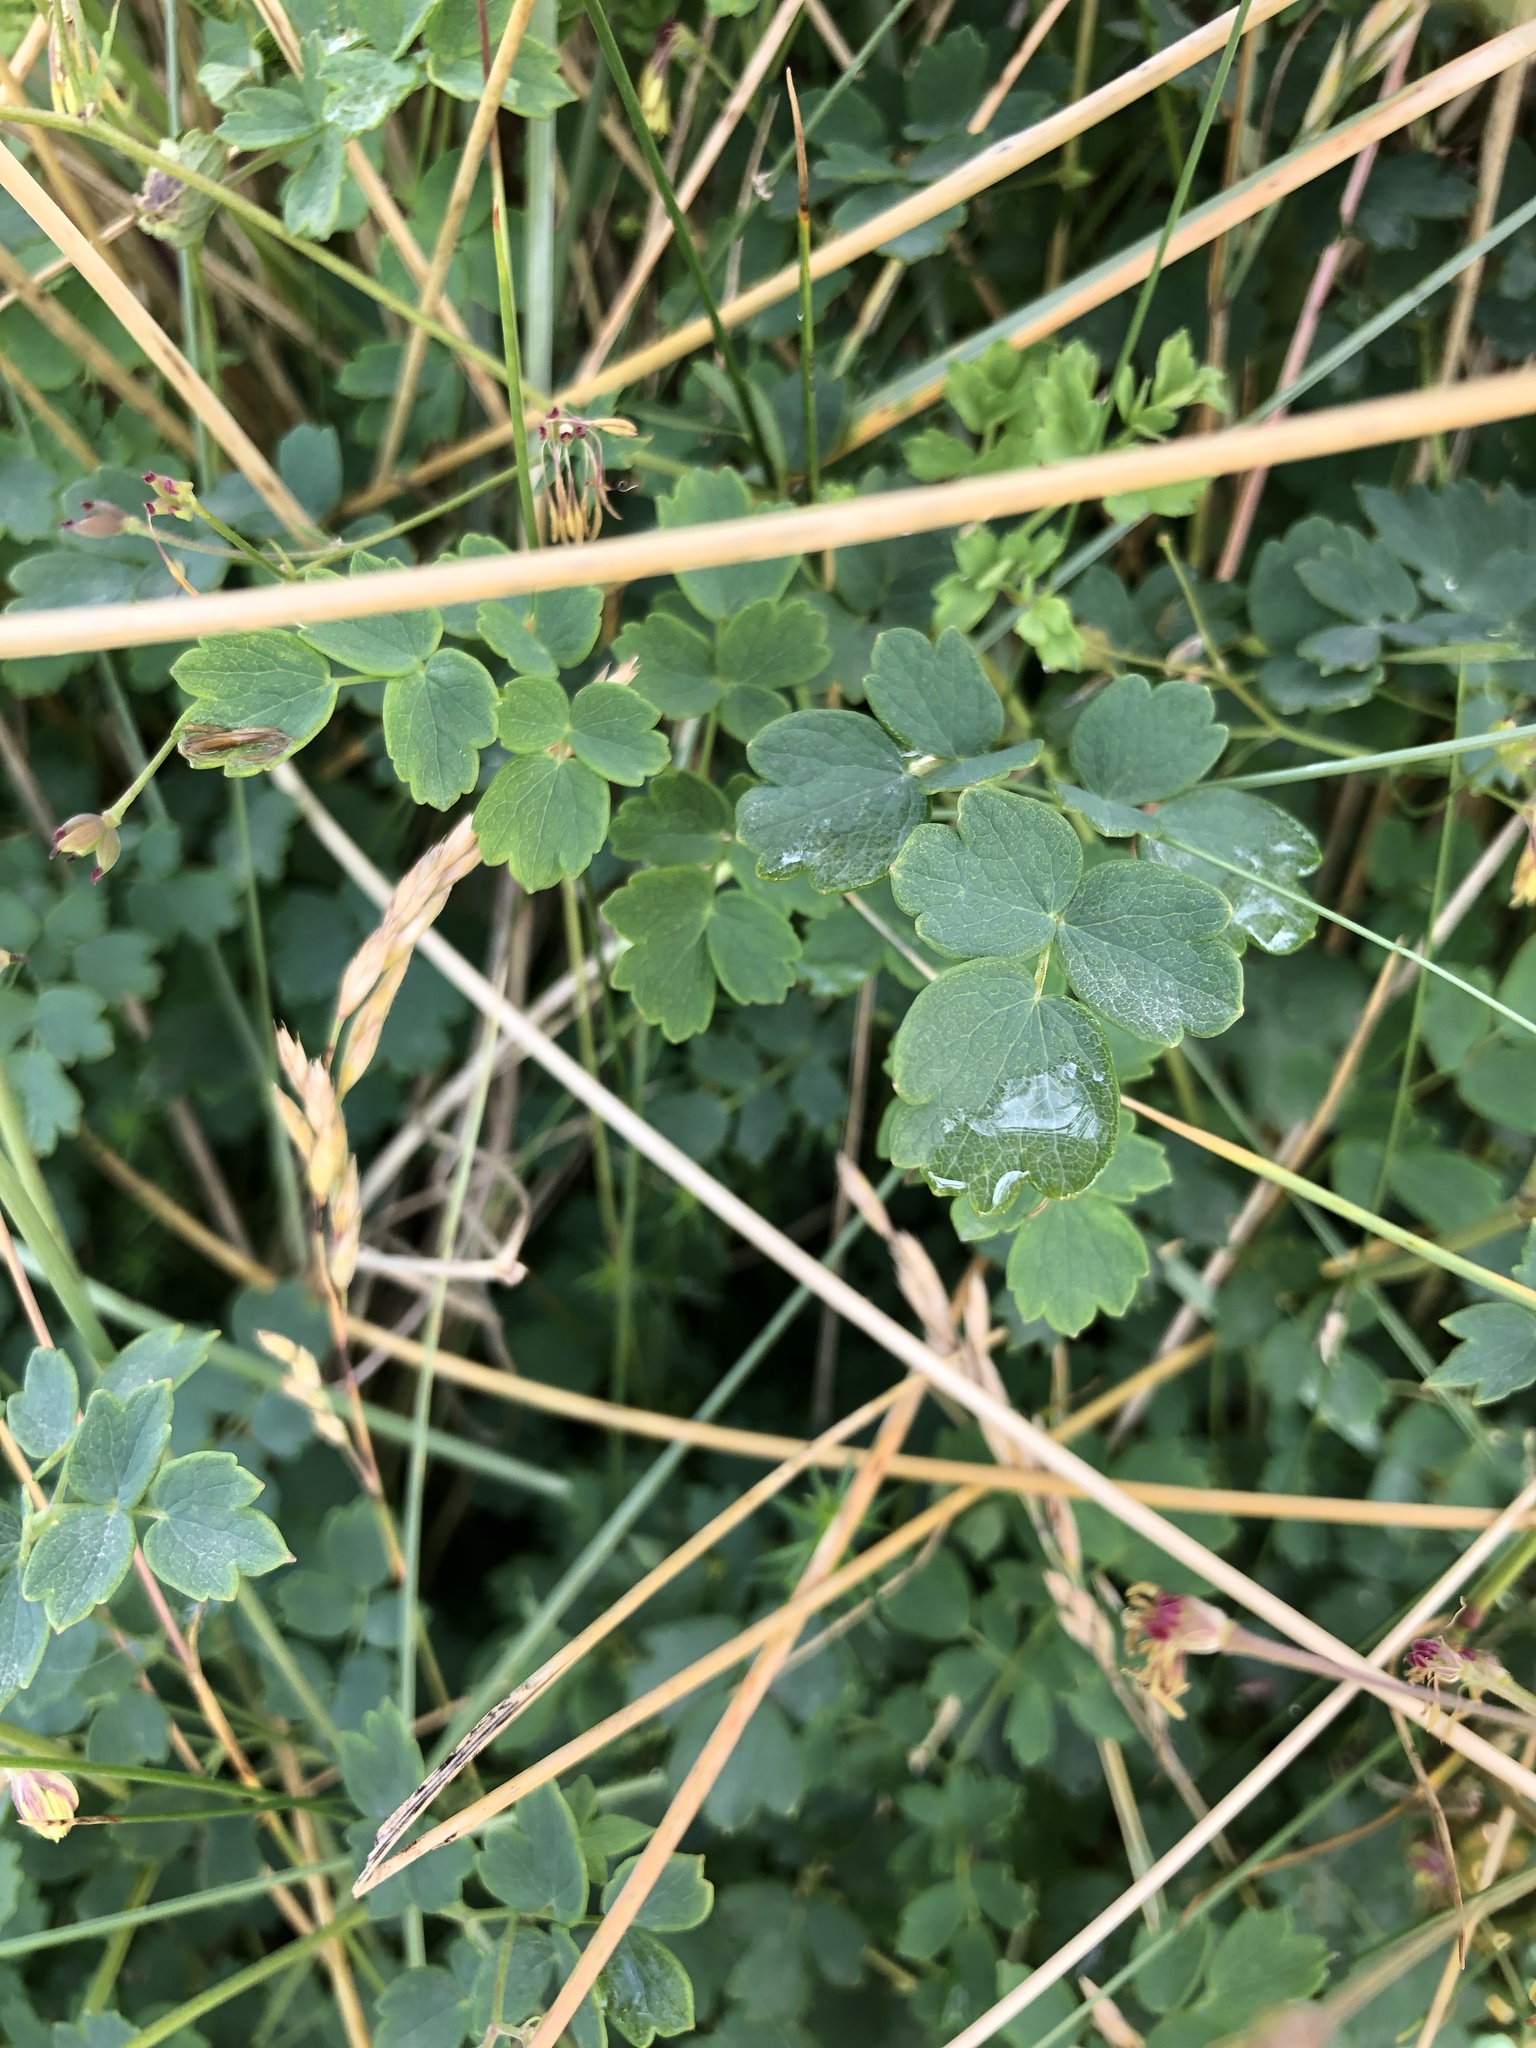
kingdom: Plantae
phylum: Tracheophyta
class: Magnoliopsida
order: Ranunculales
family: Ranunculaceae
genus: Thalictrum
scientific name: Thalictrum minus
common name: Lesser meadow-rue
